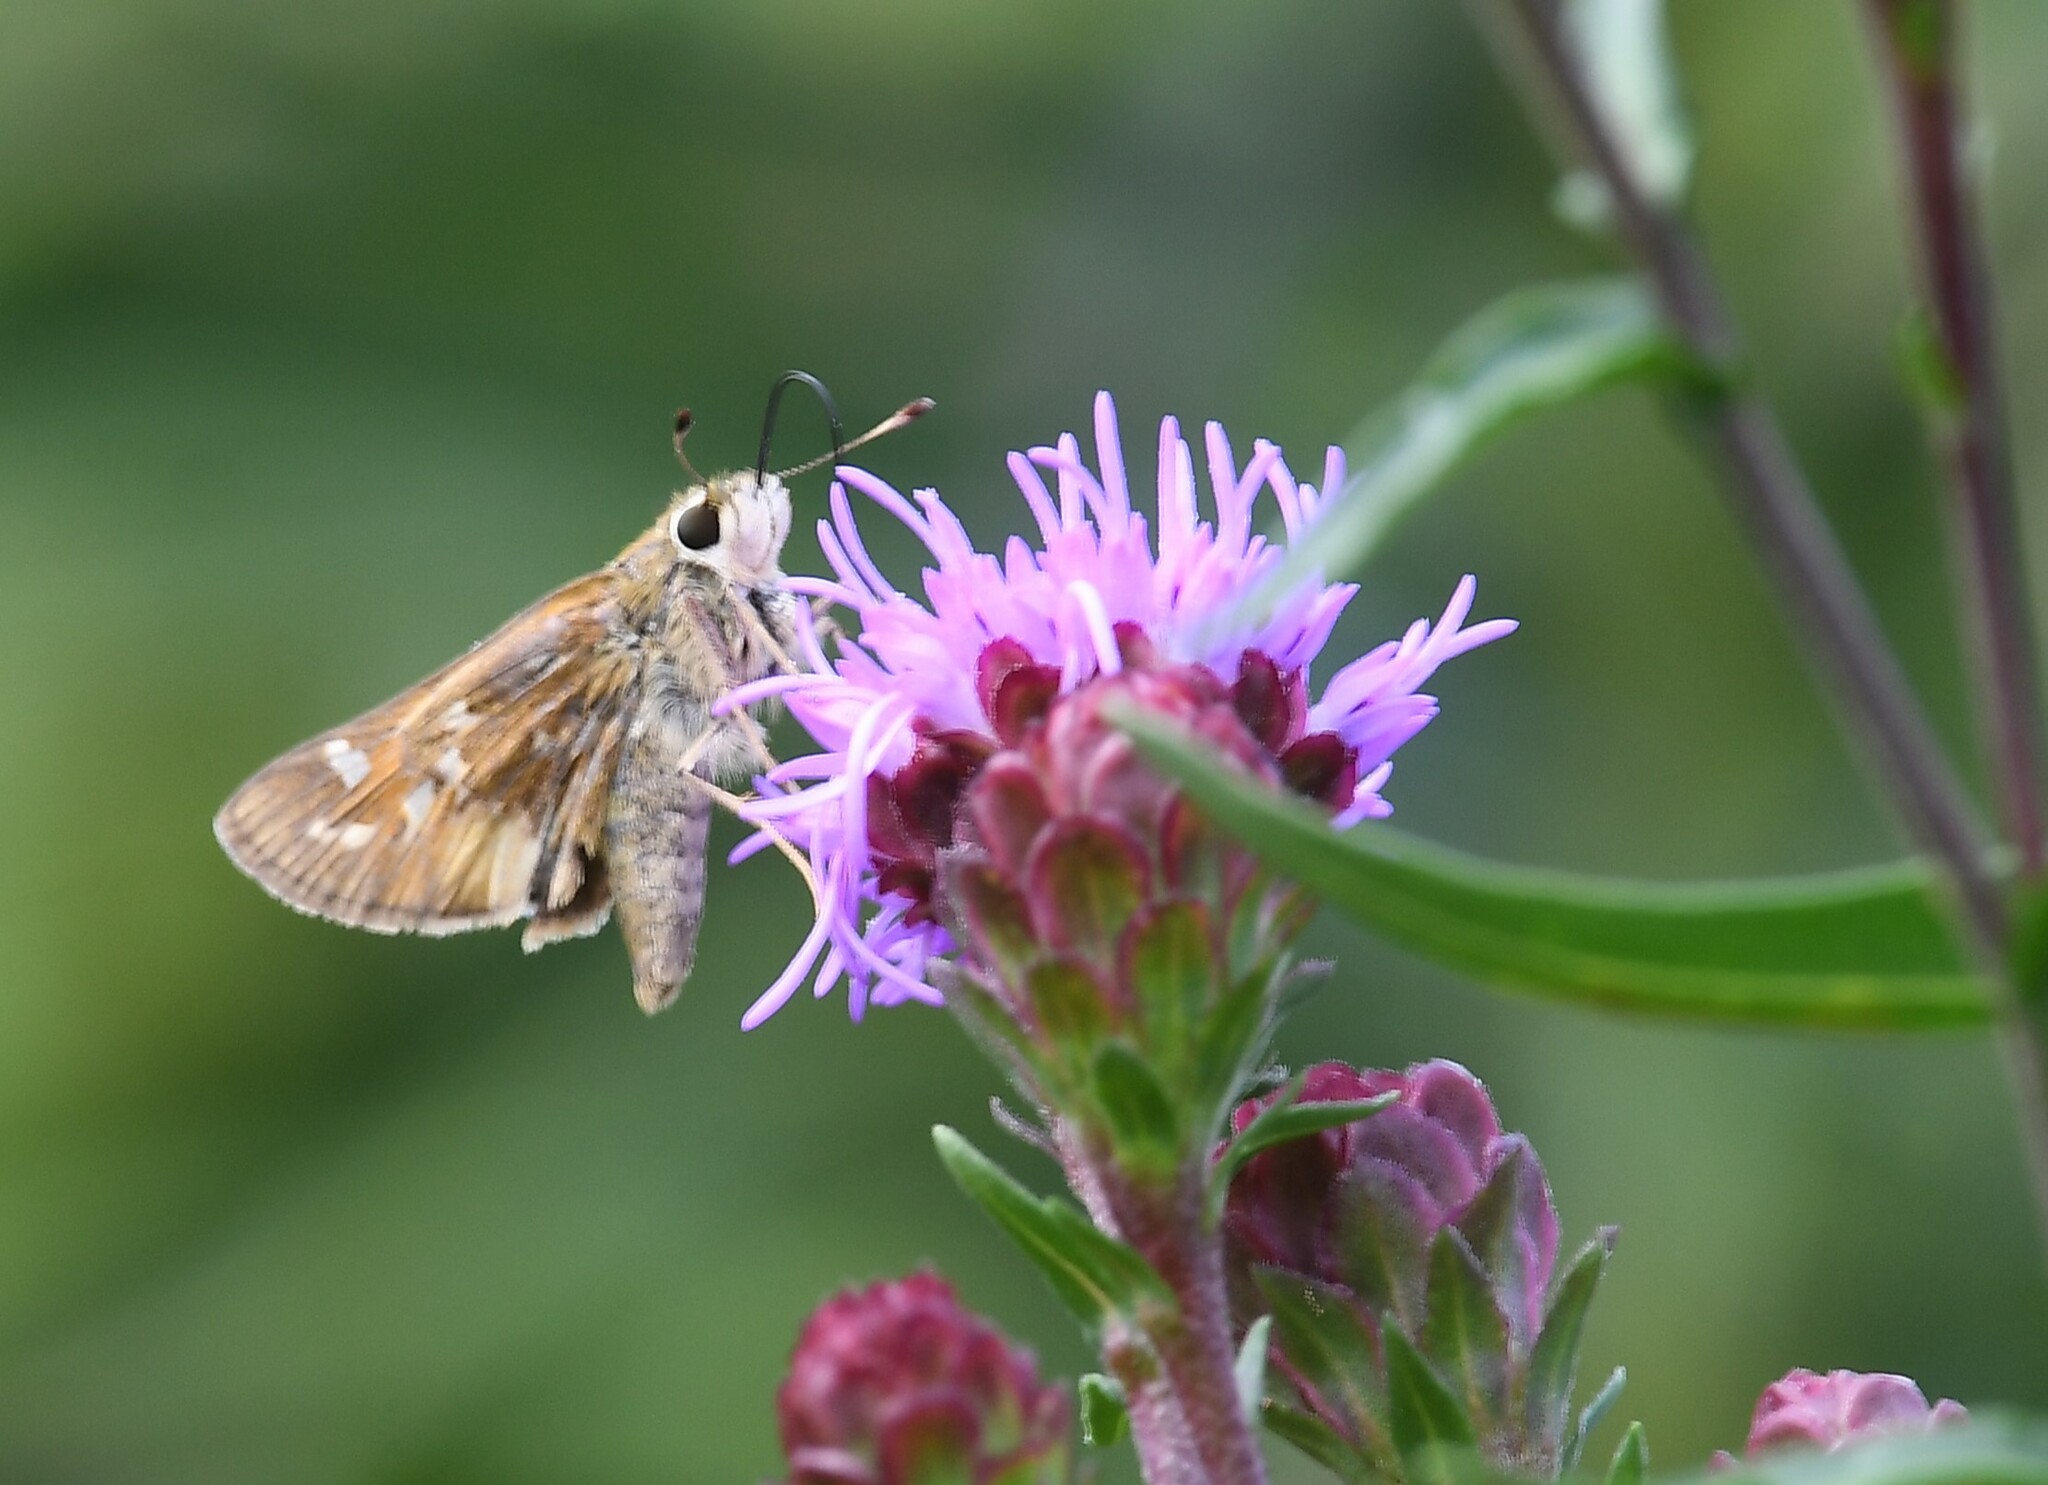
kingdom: Animalia
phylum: Arthropoda
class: Insecta
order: Lepidoptera
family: Hesperiidae
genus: Atalopedes
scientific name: Atalopedes
